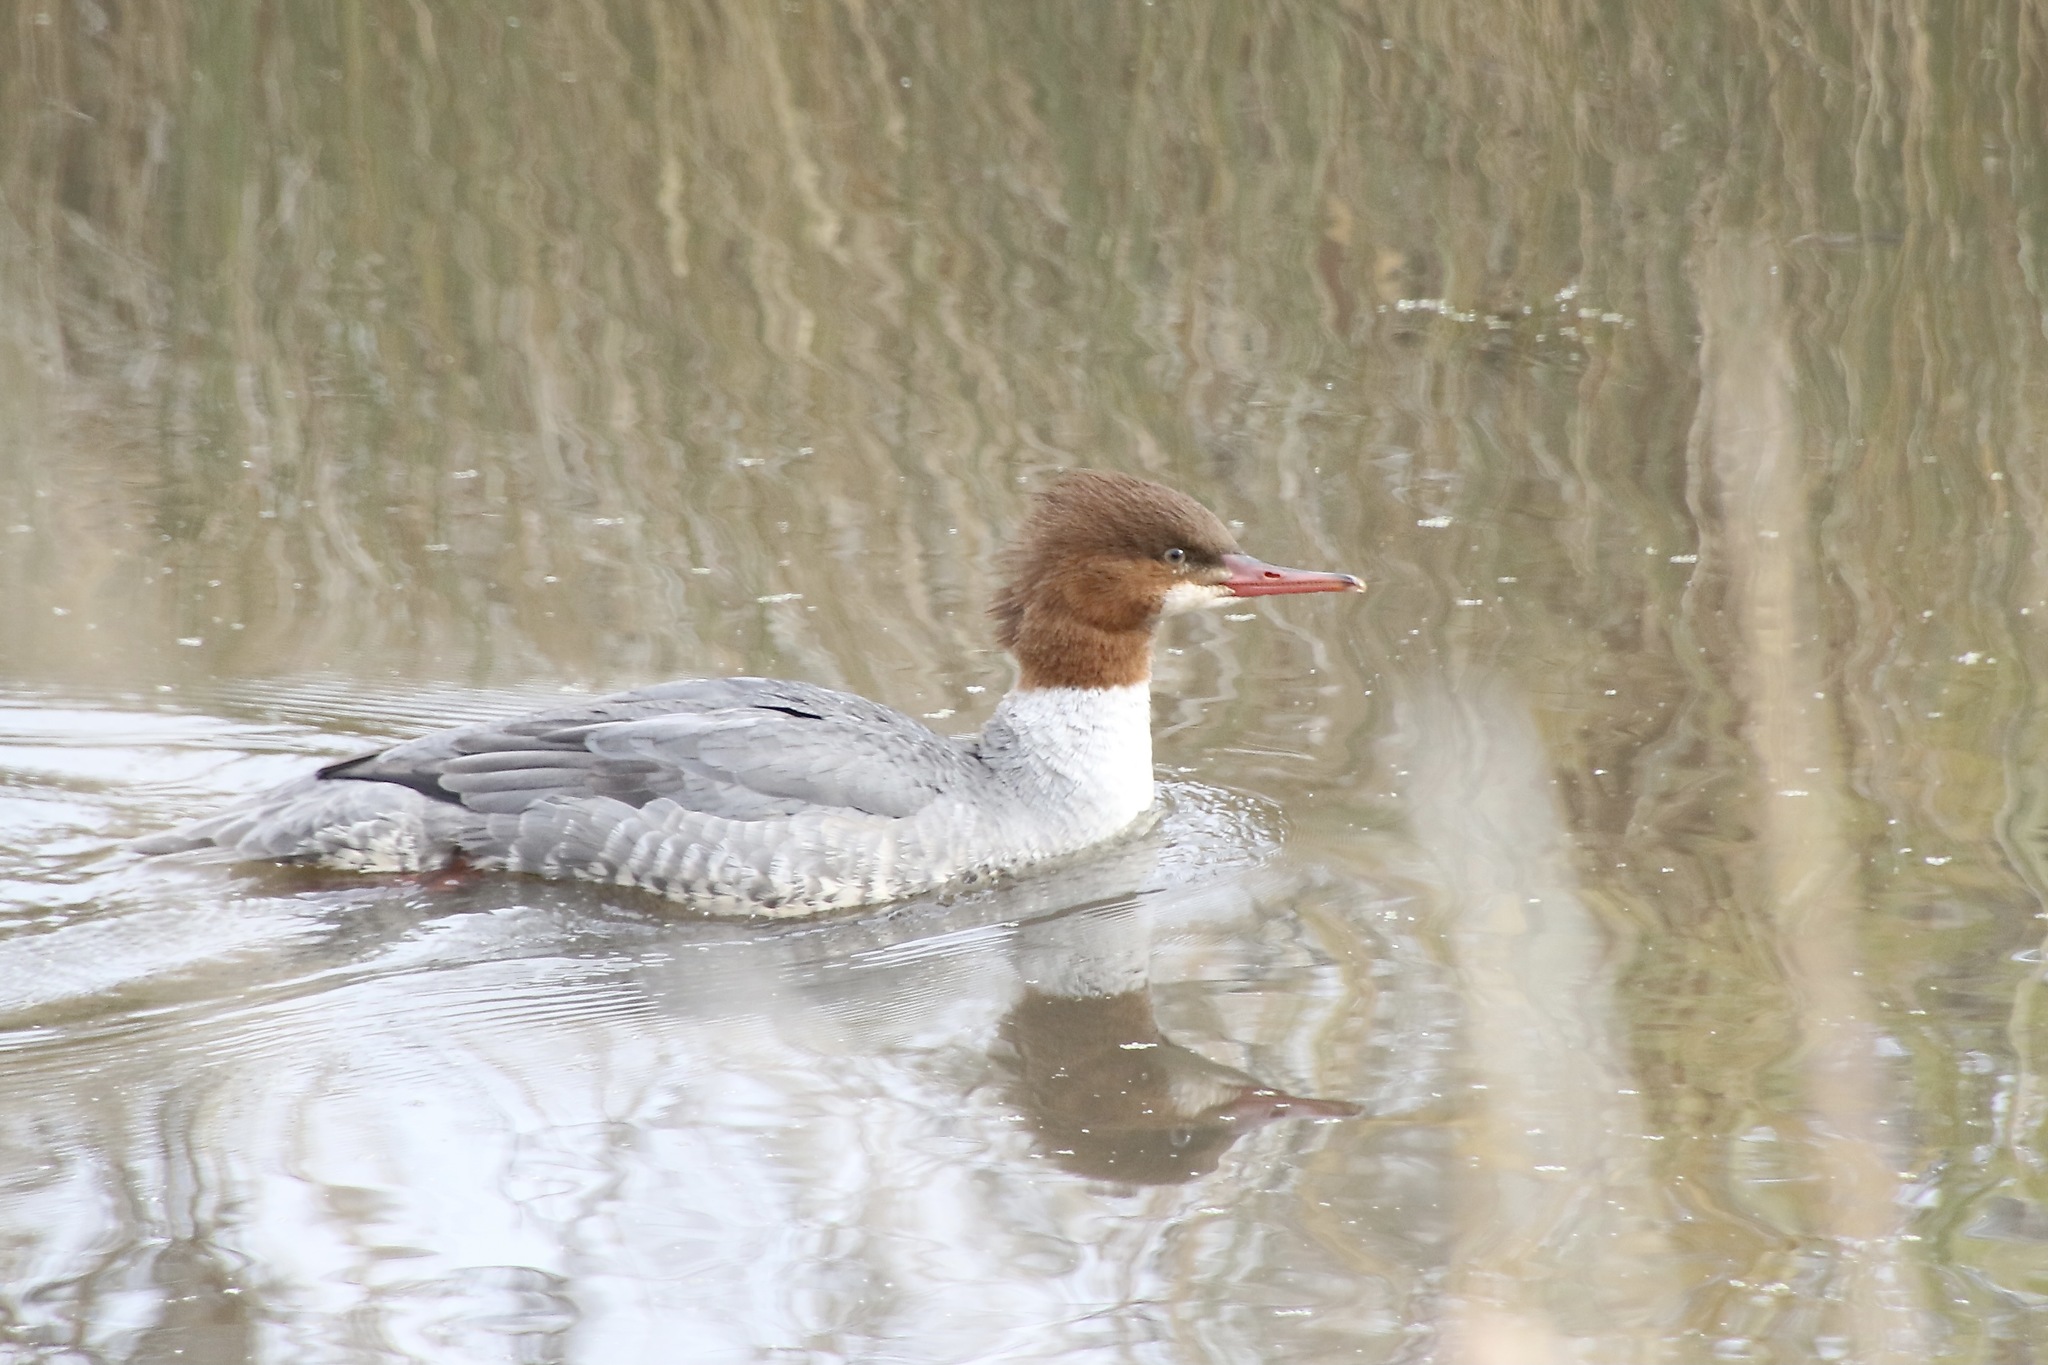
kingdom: Animalia
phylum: Chordata
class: Aves
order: Anseriformes
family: Anatidae
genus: Mergus
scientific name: Mergus merganser
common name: Common merganser
